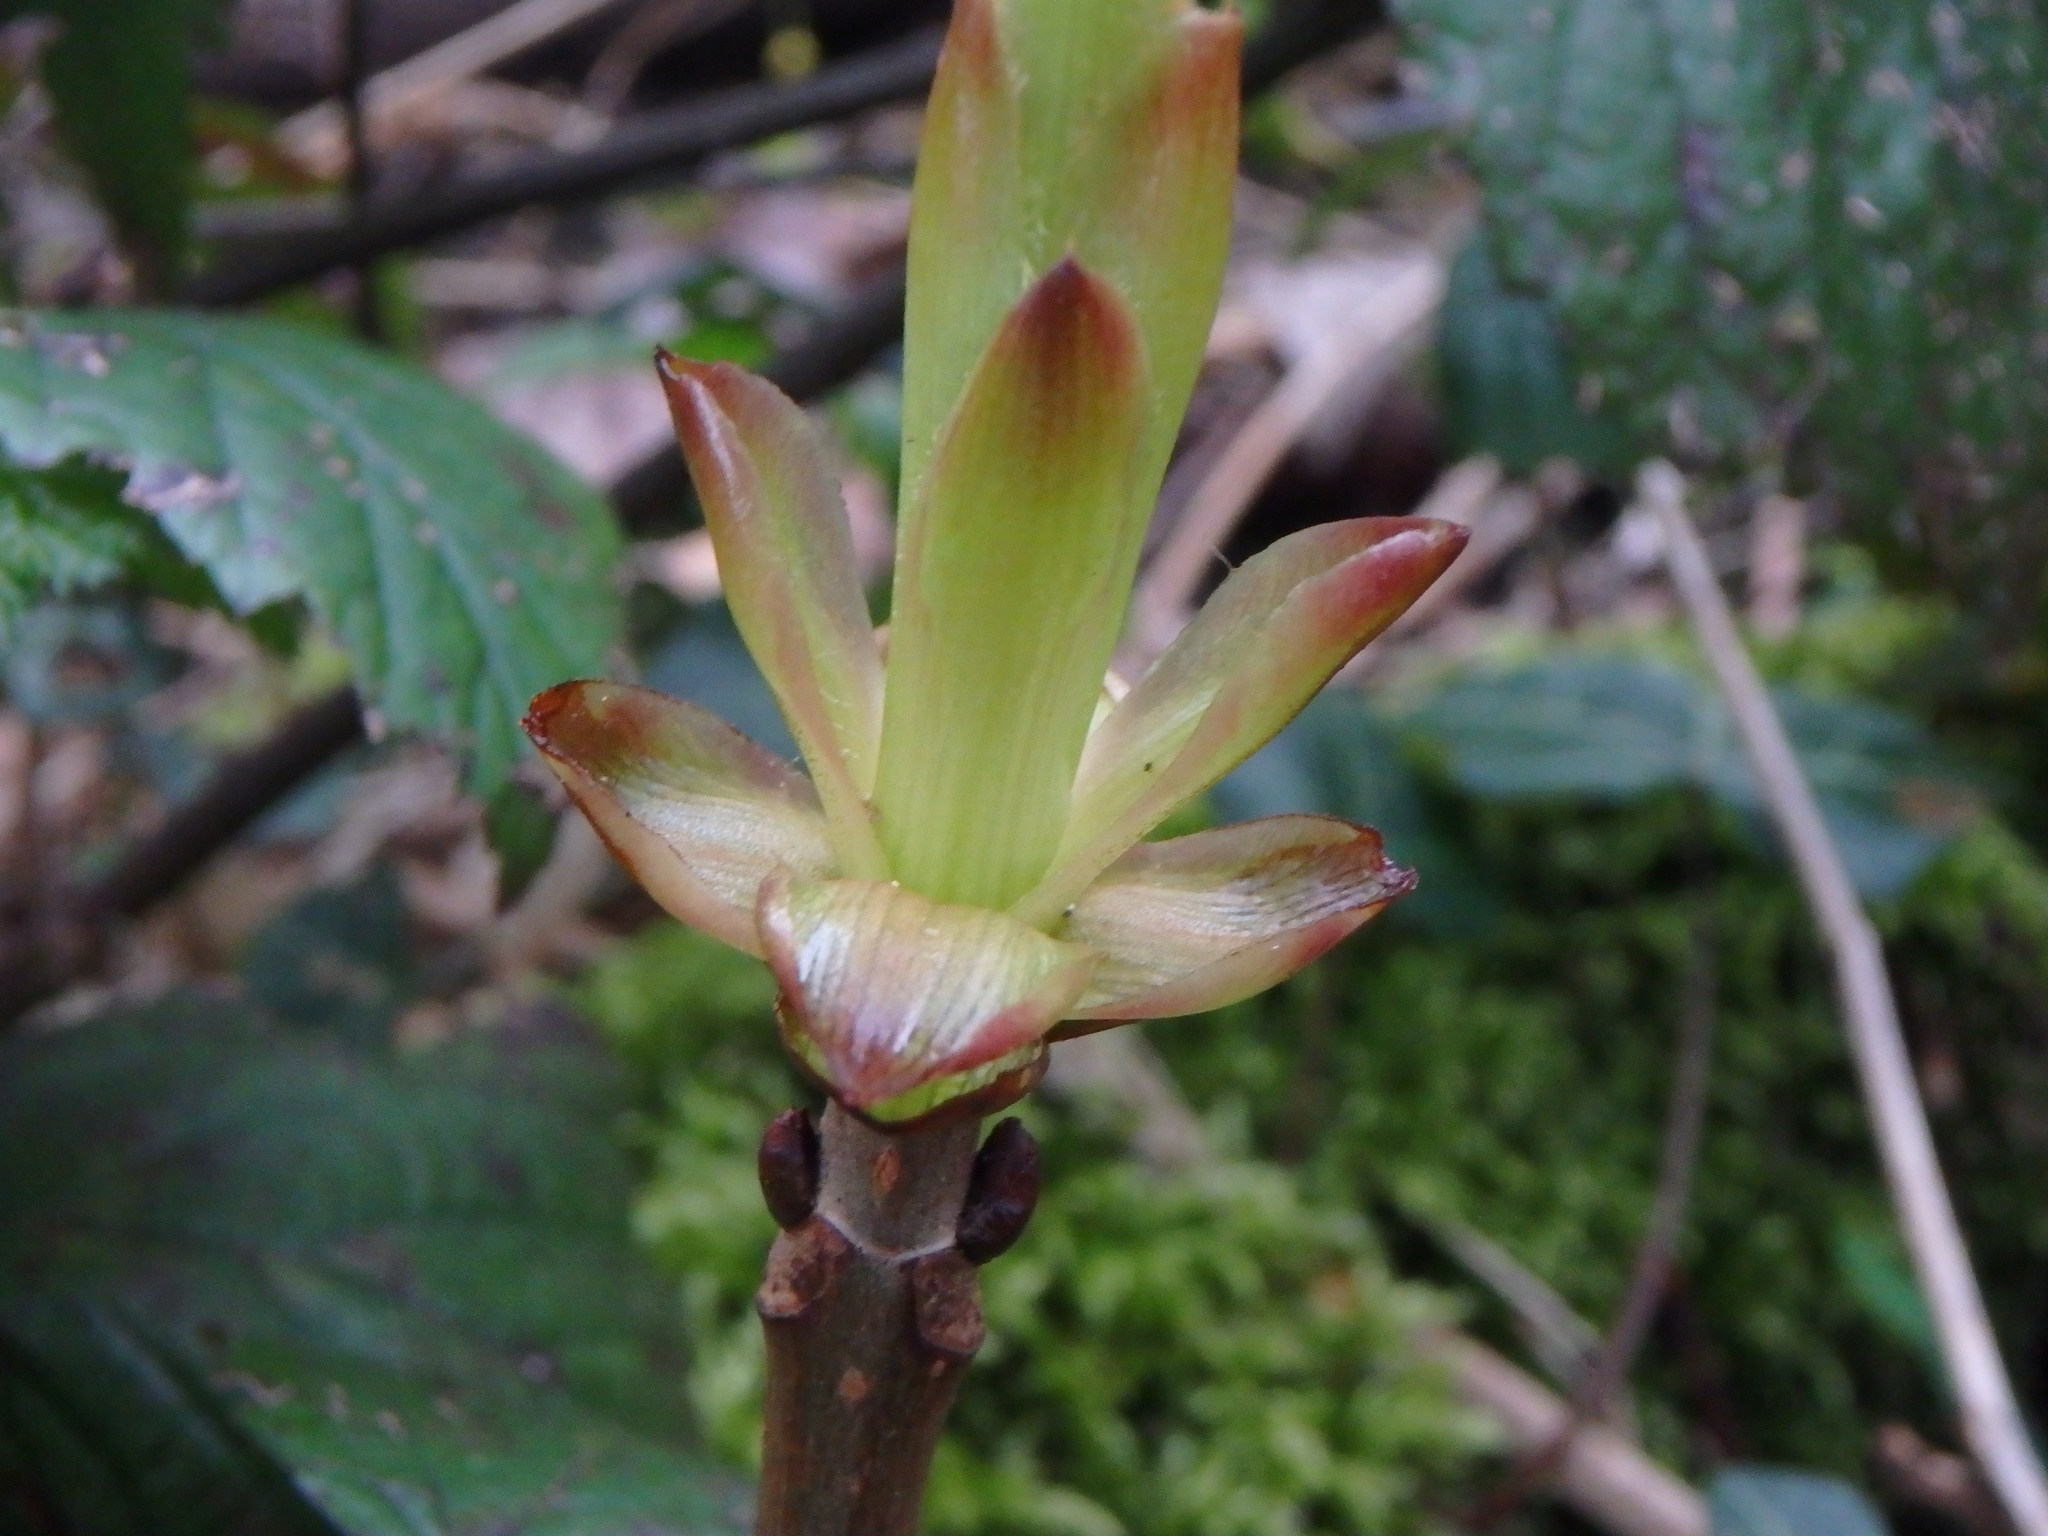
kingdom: Plantae
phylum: Tracheophyta
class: Magnoliopsida
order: Sapindales
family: Sapindaceae
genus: Aesculus
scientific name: Aesculus hippocastanum
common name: Horse-chestnut
